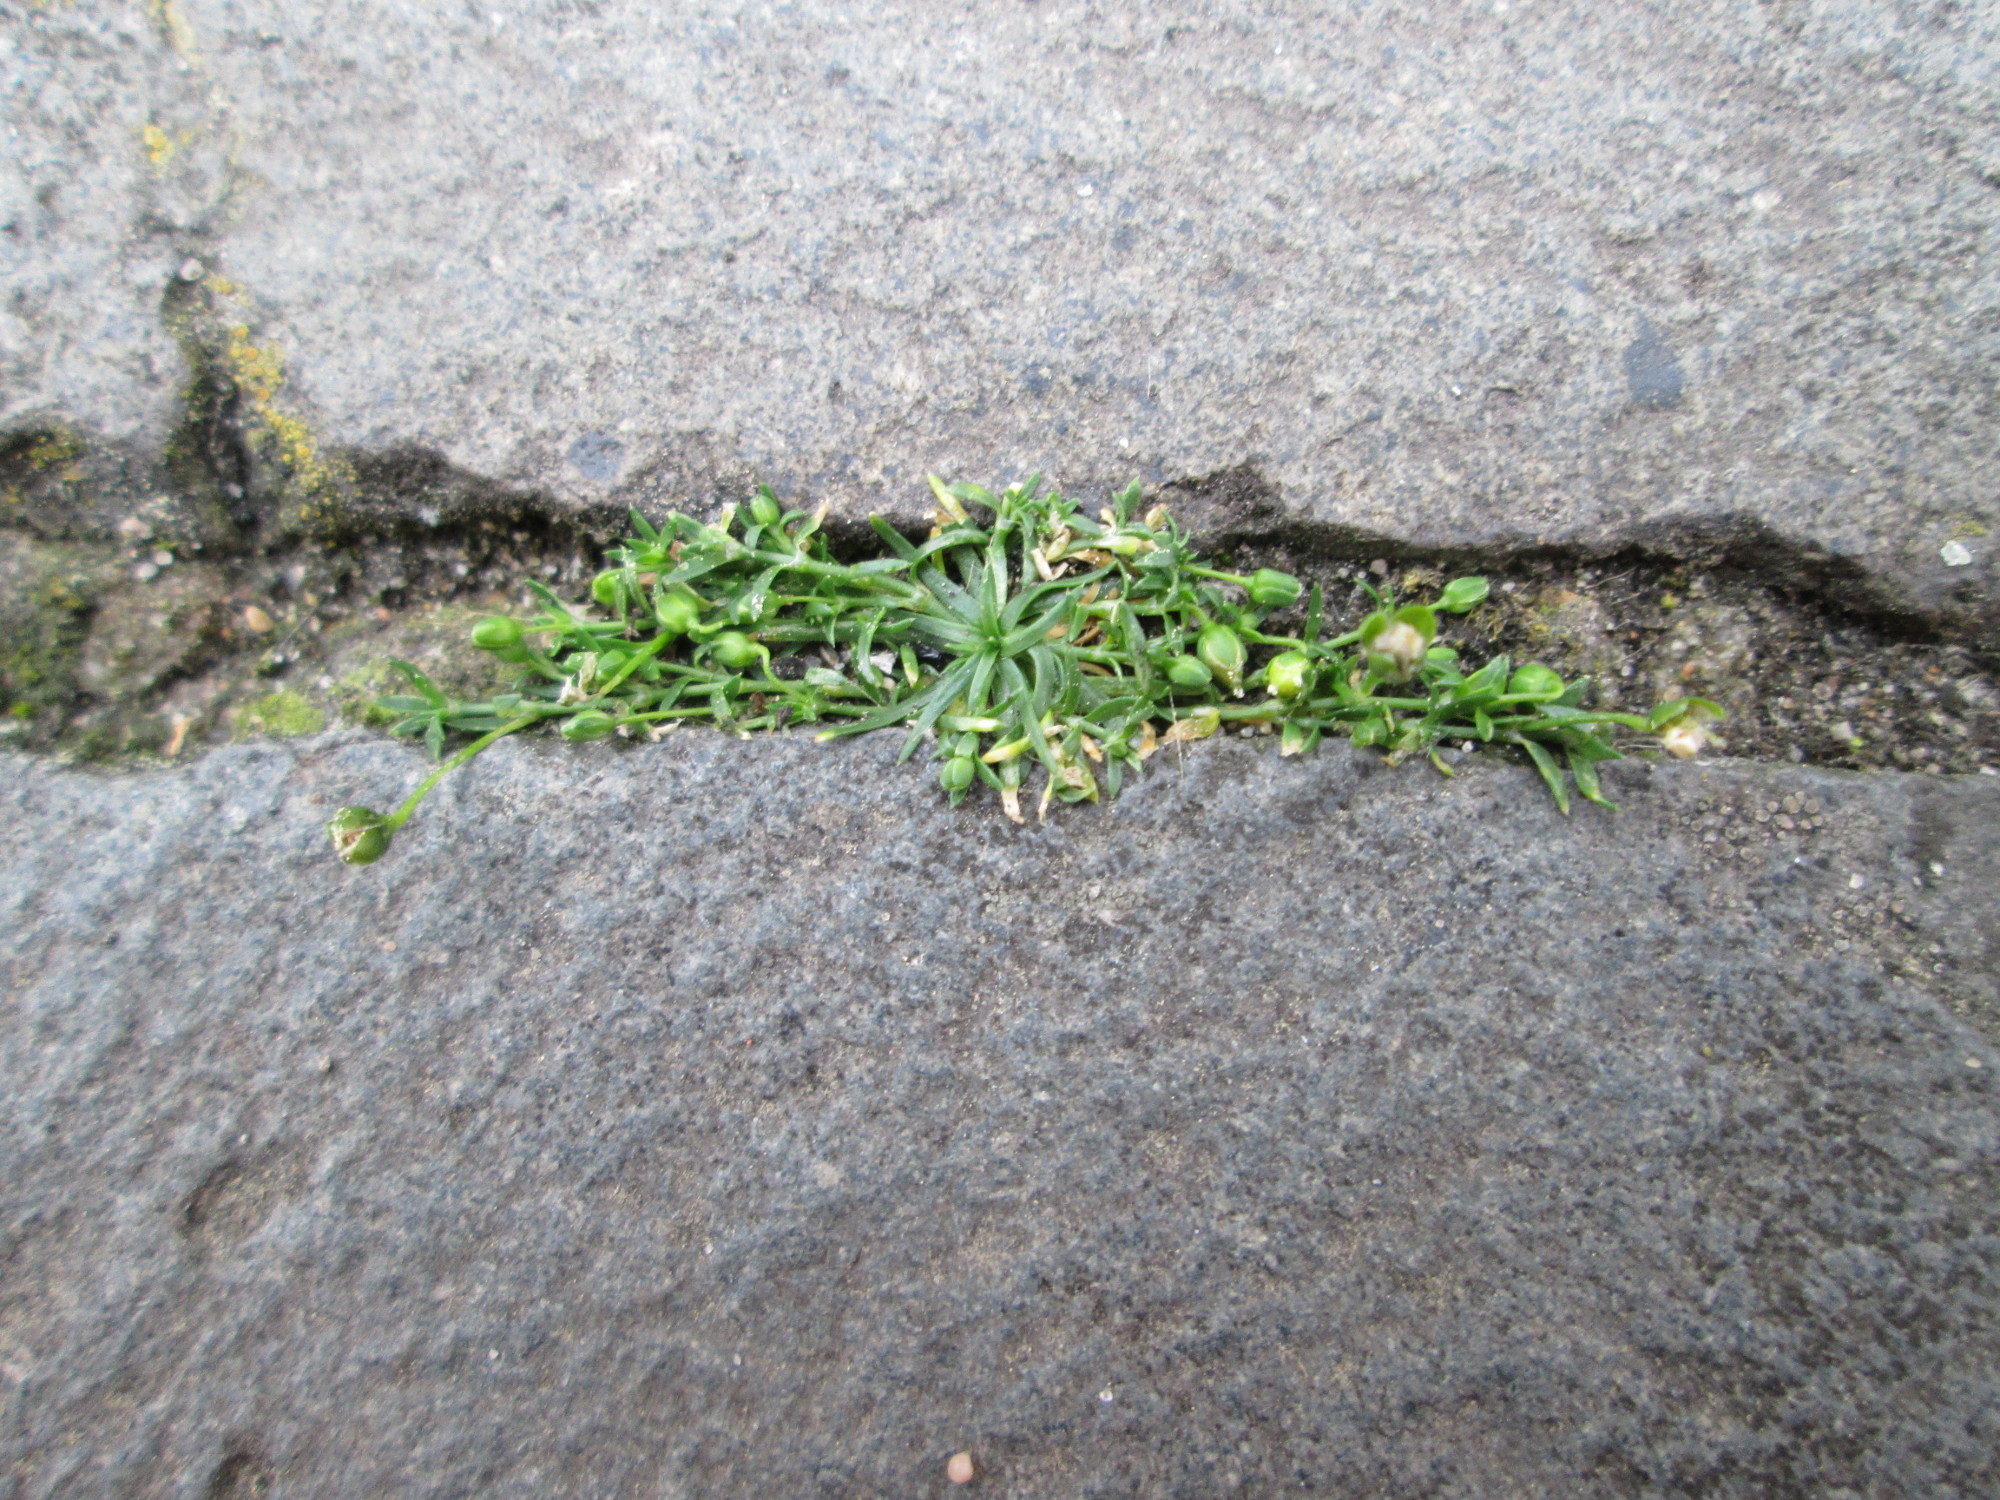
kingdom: Plantae
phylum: Tracheophyta
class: Magnoliopsida
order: Caryophyllales
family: Caryophyllaceae
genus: Sagina
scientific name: Sagina procumbens
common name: Procumbent pearlwort
